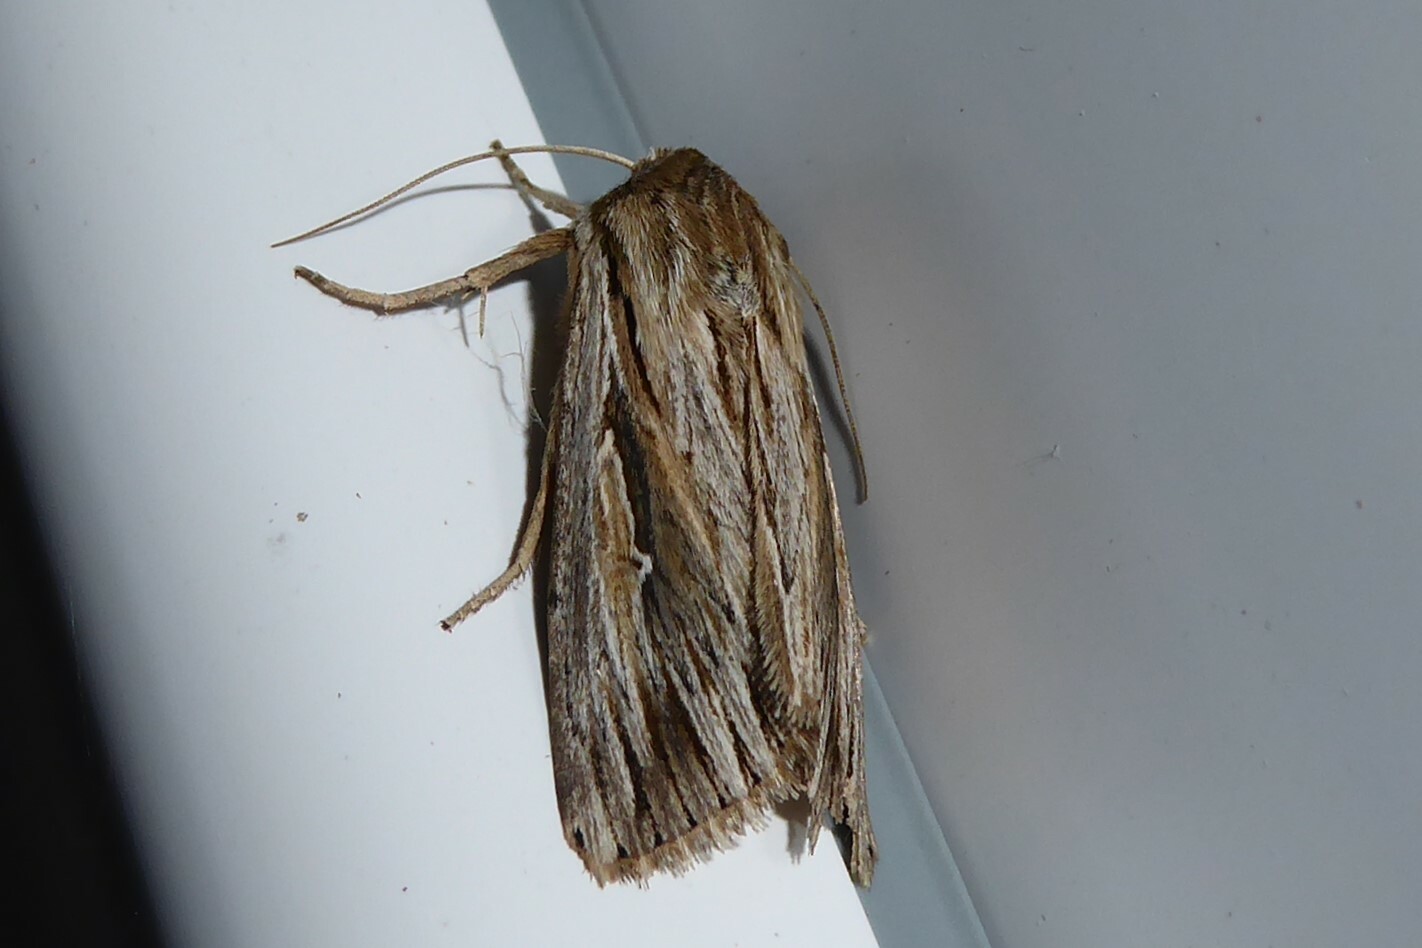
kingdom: Animalia
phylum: Arthropoda
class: Insecta
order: Lepidoptera
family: Noctuidae
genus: Persectania
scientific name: Persectania aversa
